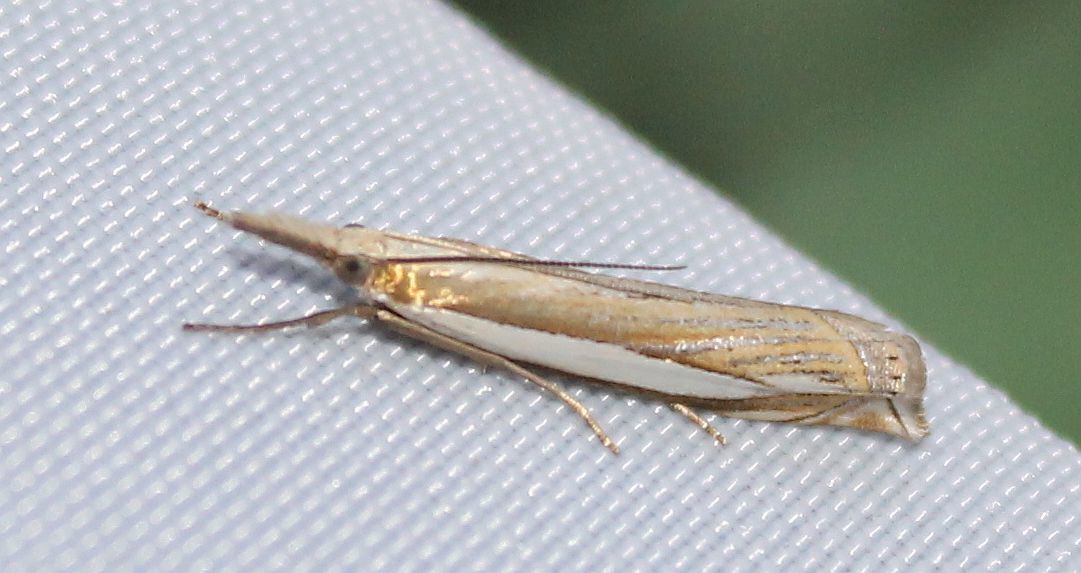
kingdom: Animalia
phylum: Arthropoda
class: Insecta
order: Lepidoptera
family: Crambidae
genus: Crambus
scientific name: Crambus pascuella
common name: Inlaid grass-veneer
